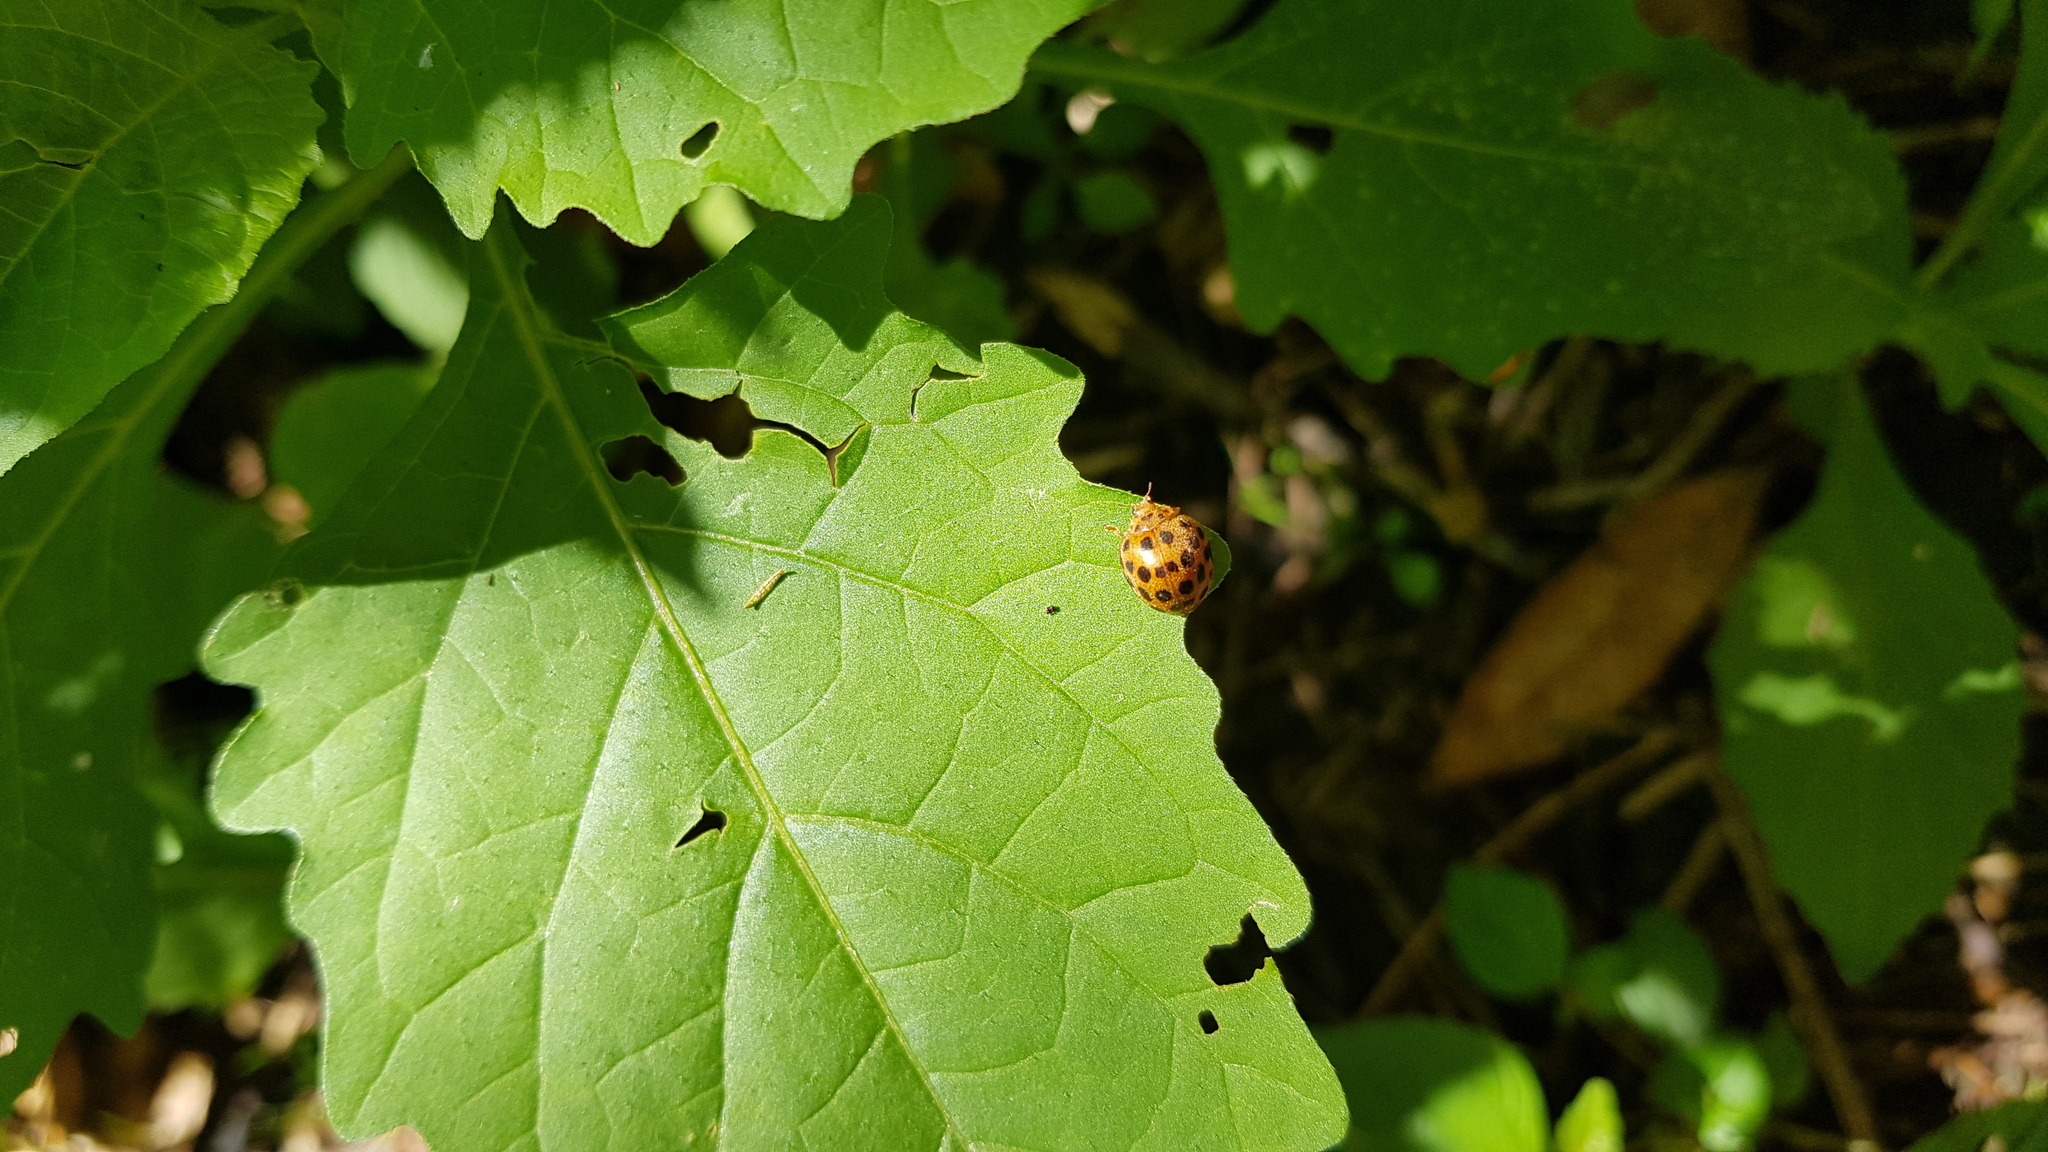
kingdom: Animalia
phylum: Arthropoda
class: Insecta
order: Coleoptera
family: Coccinellidae
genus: Henosepilachna
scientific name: Henosepilachna vigintioctopunctata
